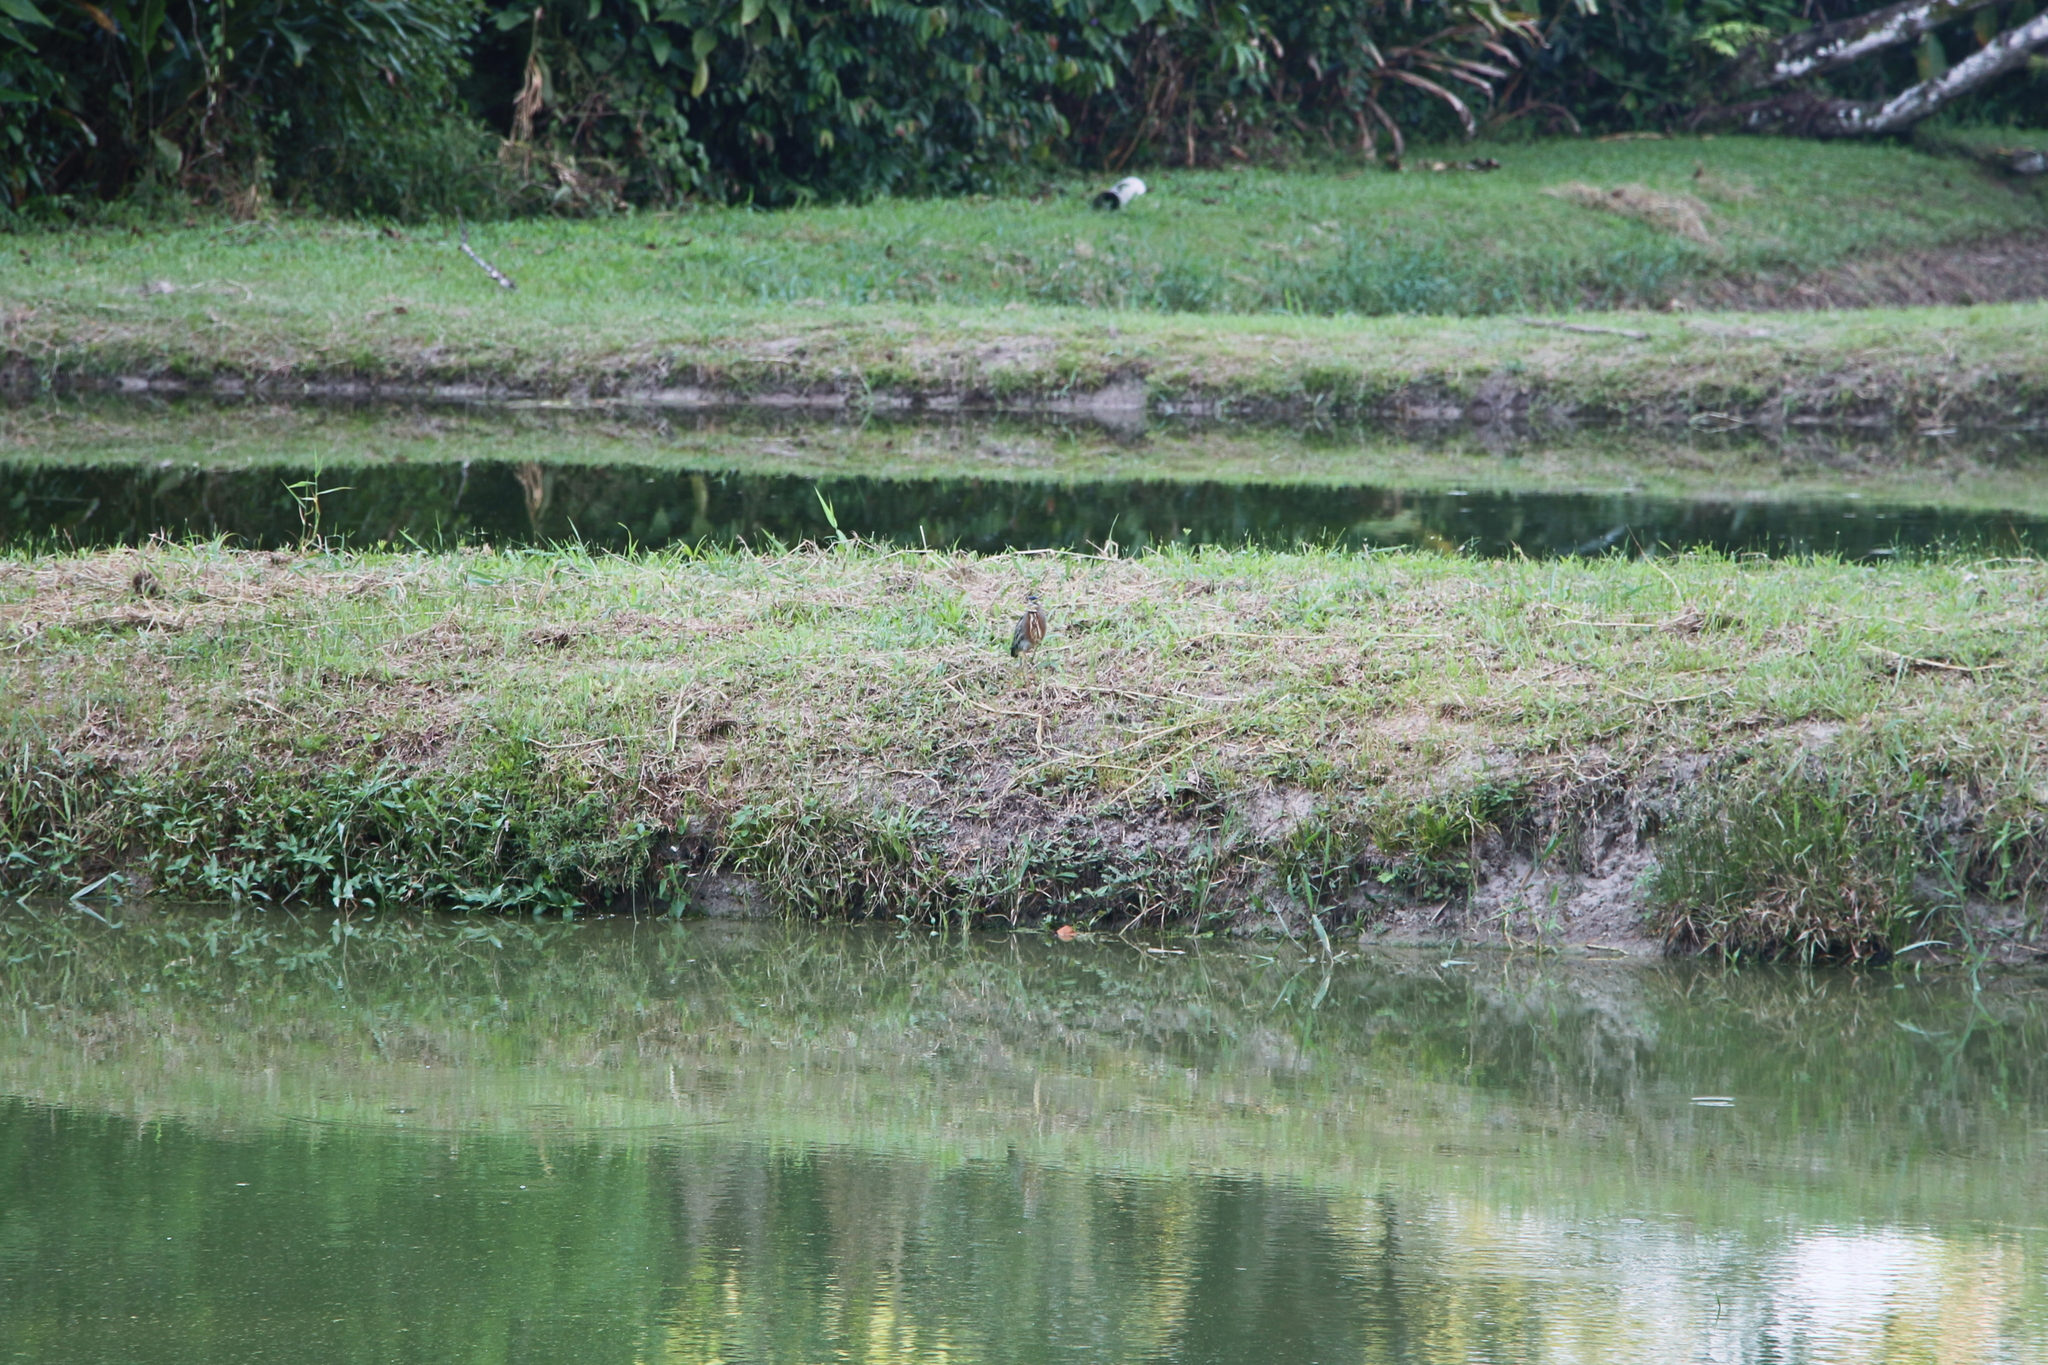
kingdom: Animalia
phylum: Chordata
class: Aves
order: Pelecaniformes
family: Ardeidae
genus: Butorides
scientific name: Butorides striata
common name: Striated heron
